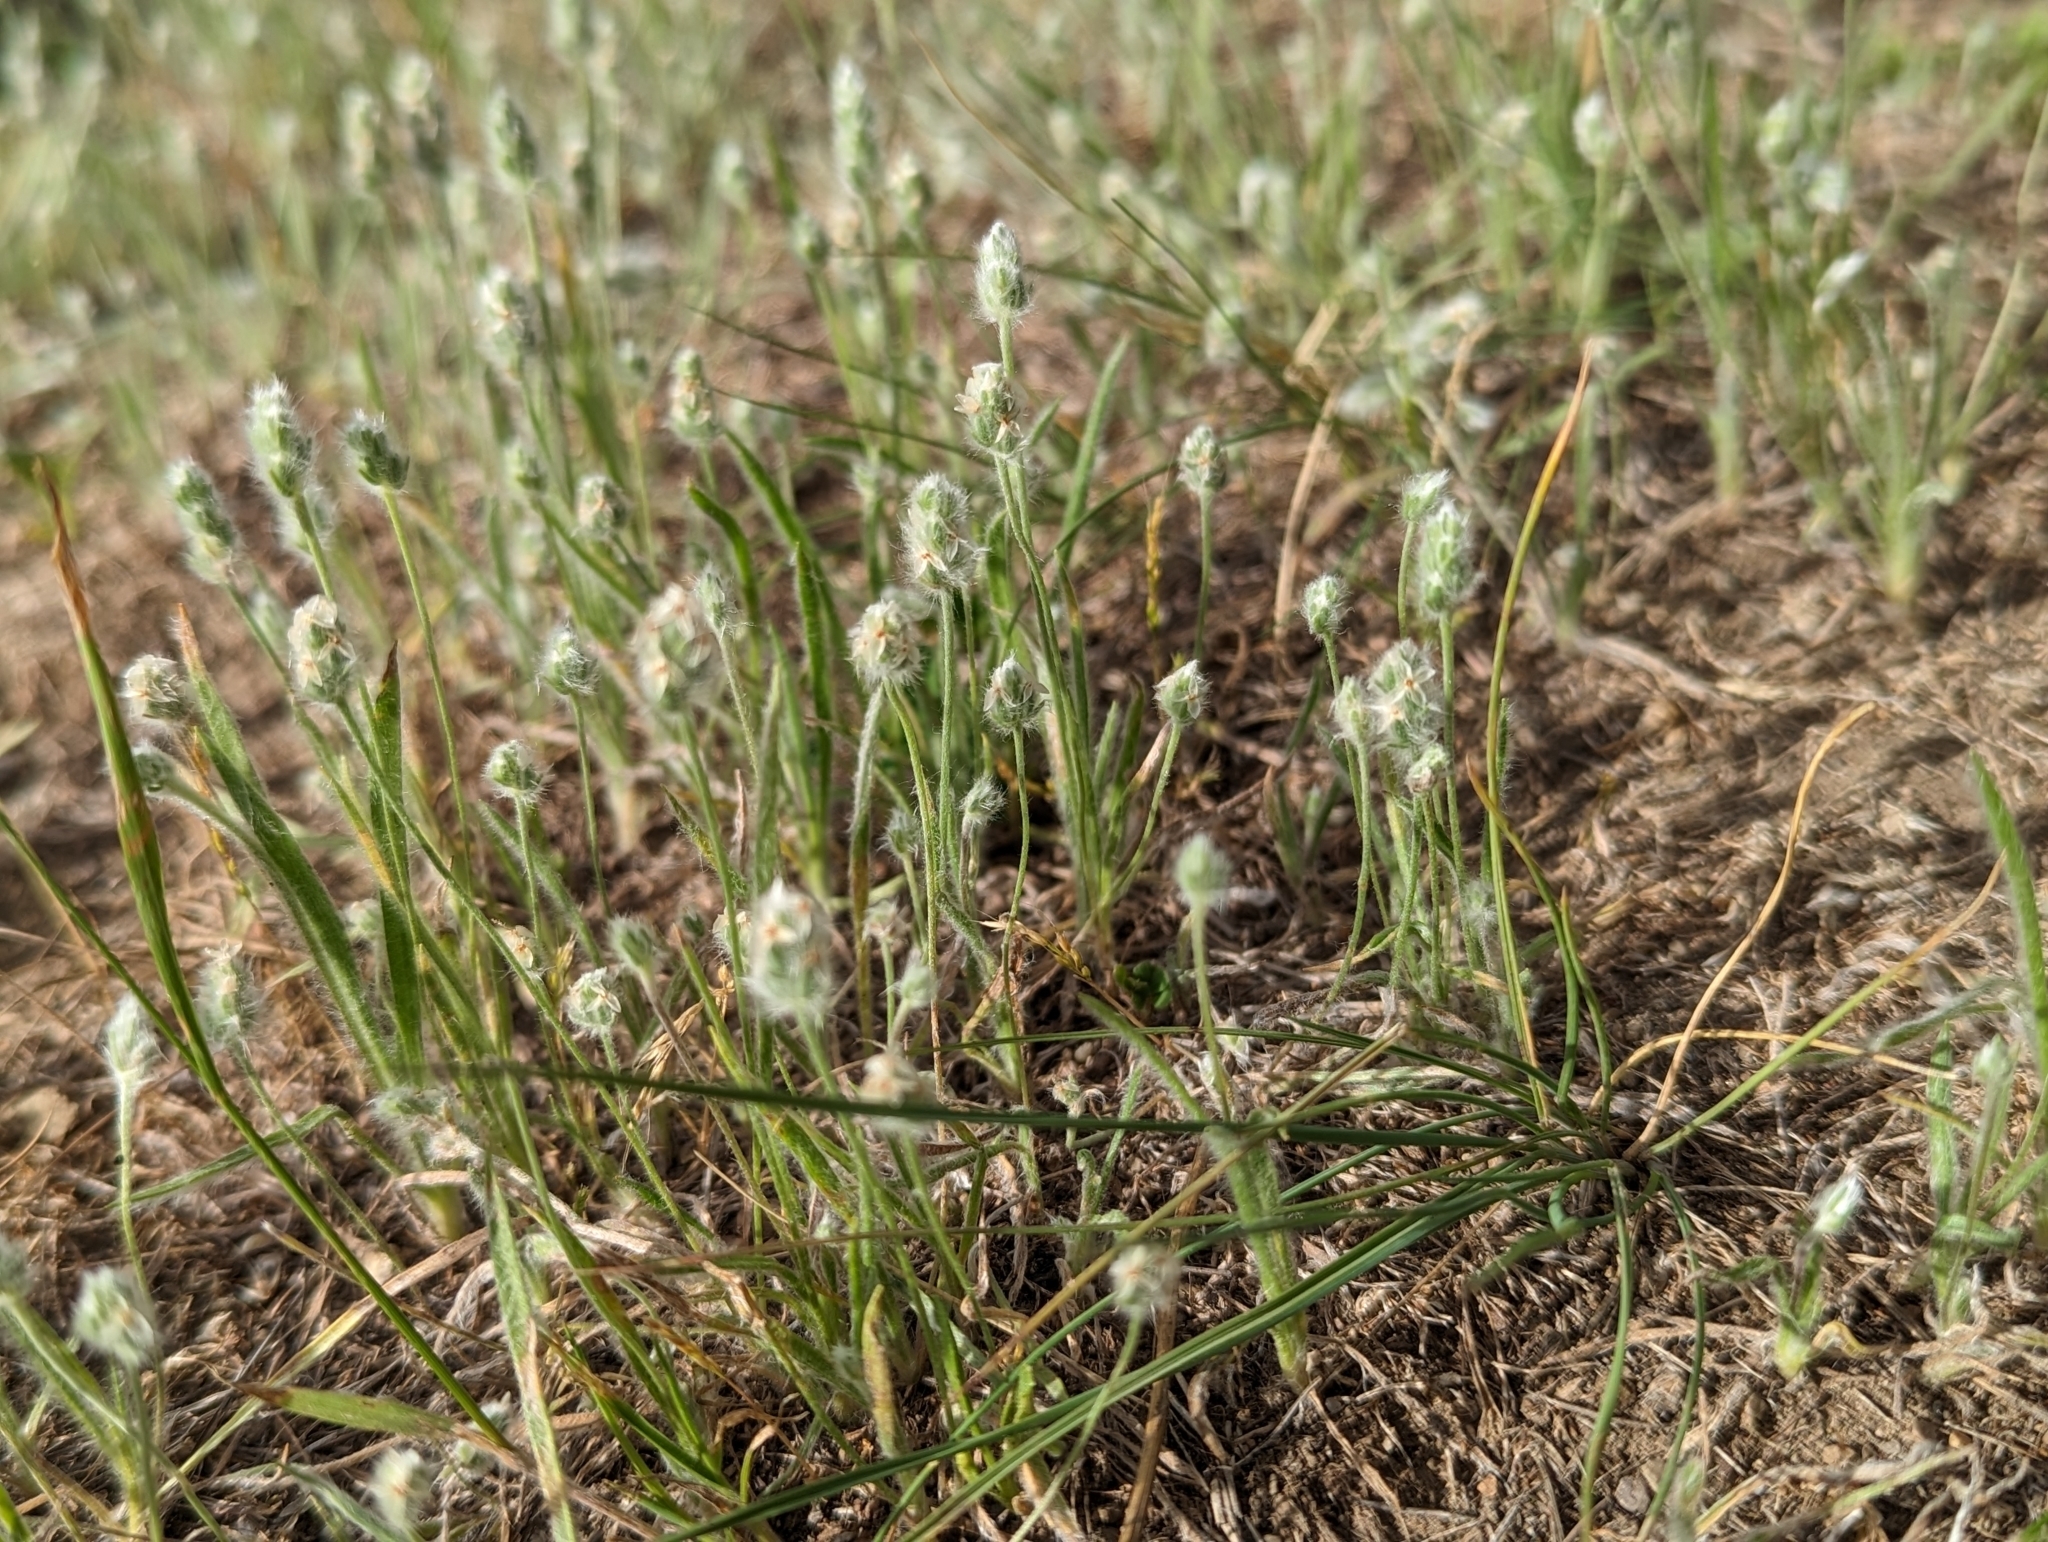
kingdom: Plantae
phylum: Tracheophyta
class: Magnoliopsida
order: Lamiales
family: Plantaginaceae
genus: Plantago
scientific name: Plantago patagonica
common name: Patagonia indian-wheat
